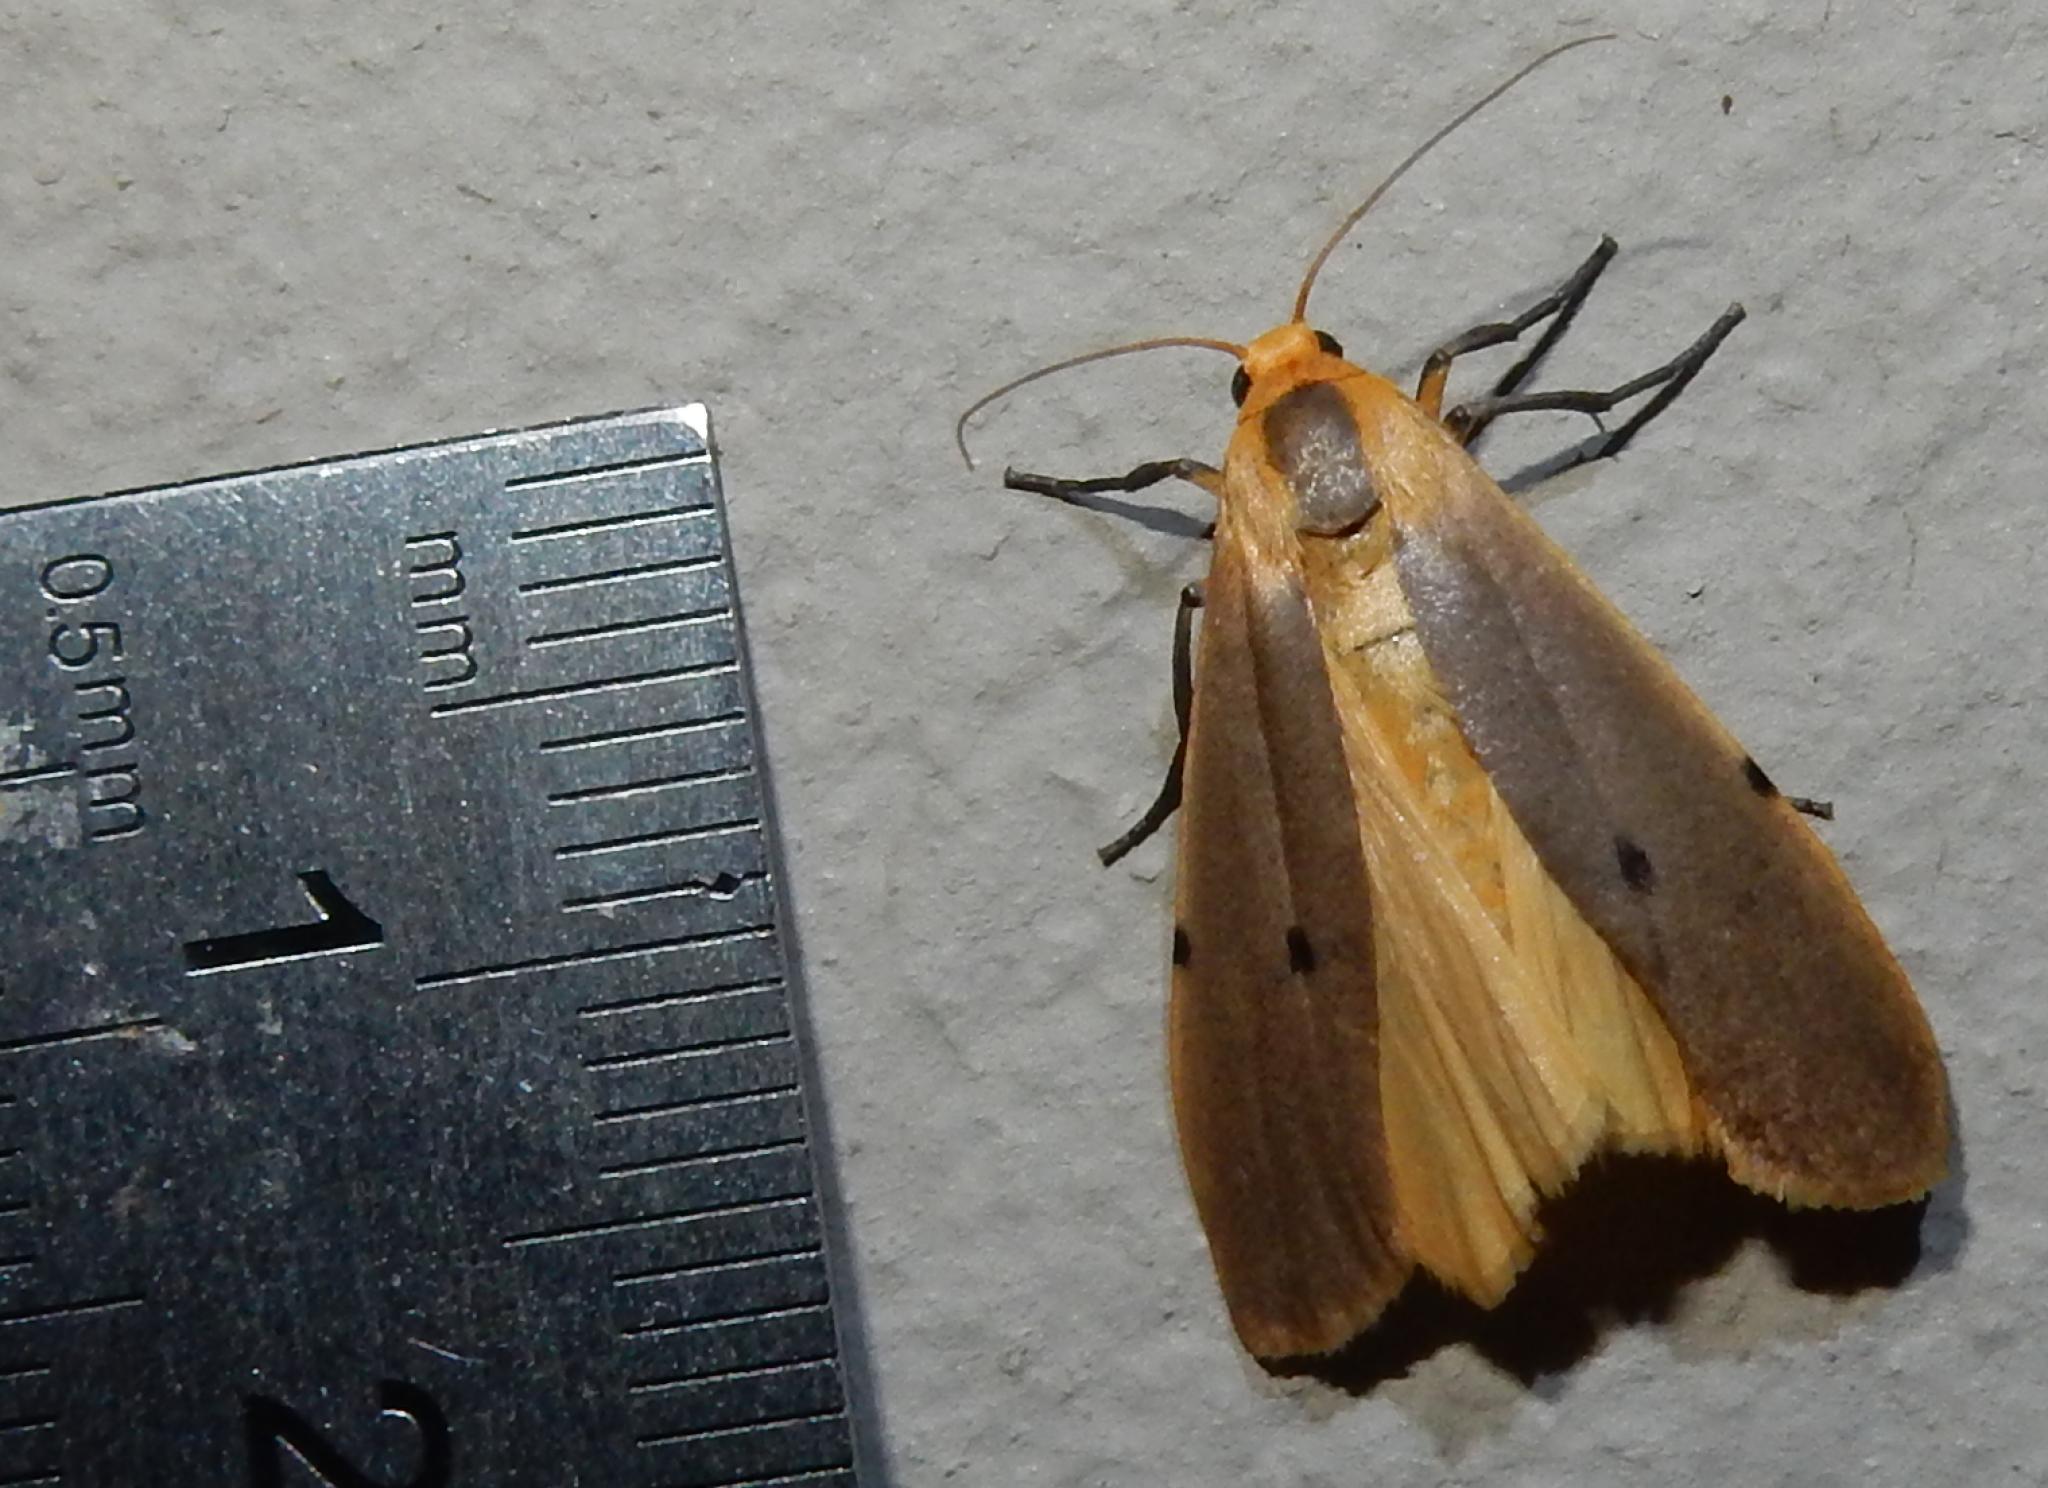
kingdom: Animalia
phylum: Arthropoda
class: Insecta
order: Lepidoptera
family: Erebidae
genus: Zobida
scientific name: Zobida similipuncta
